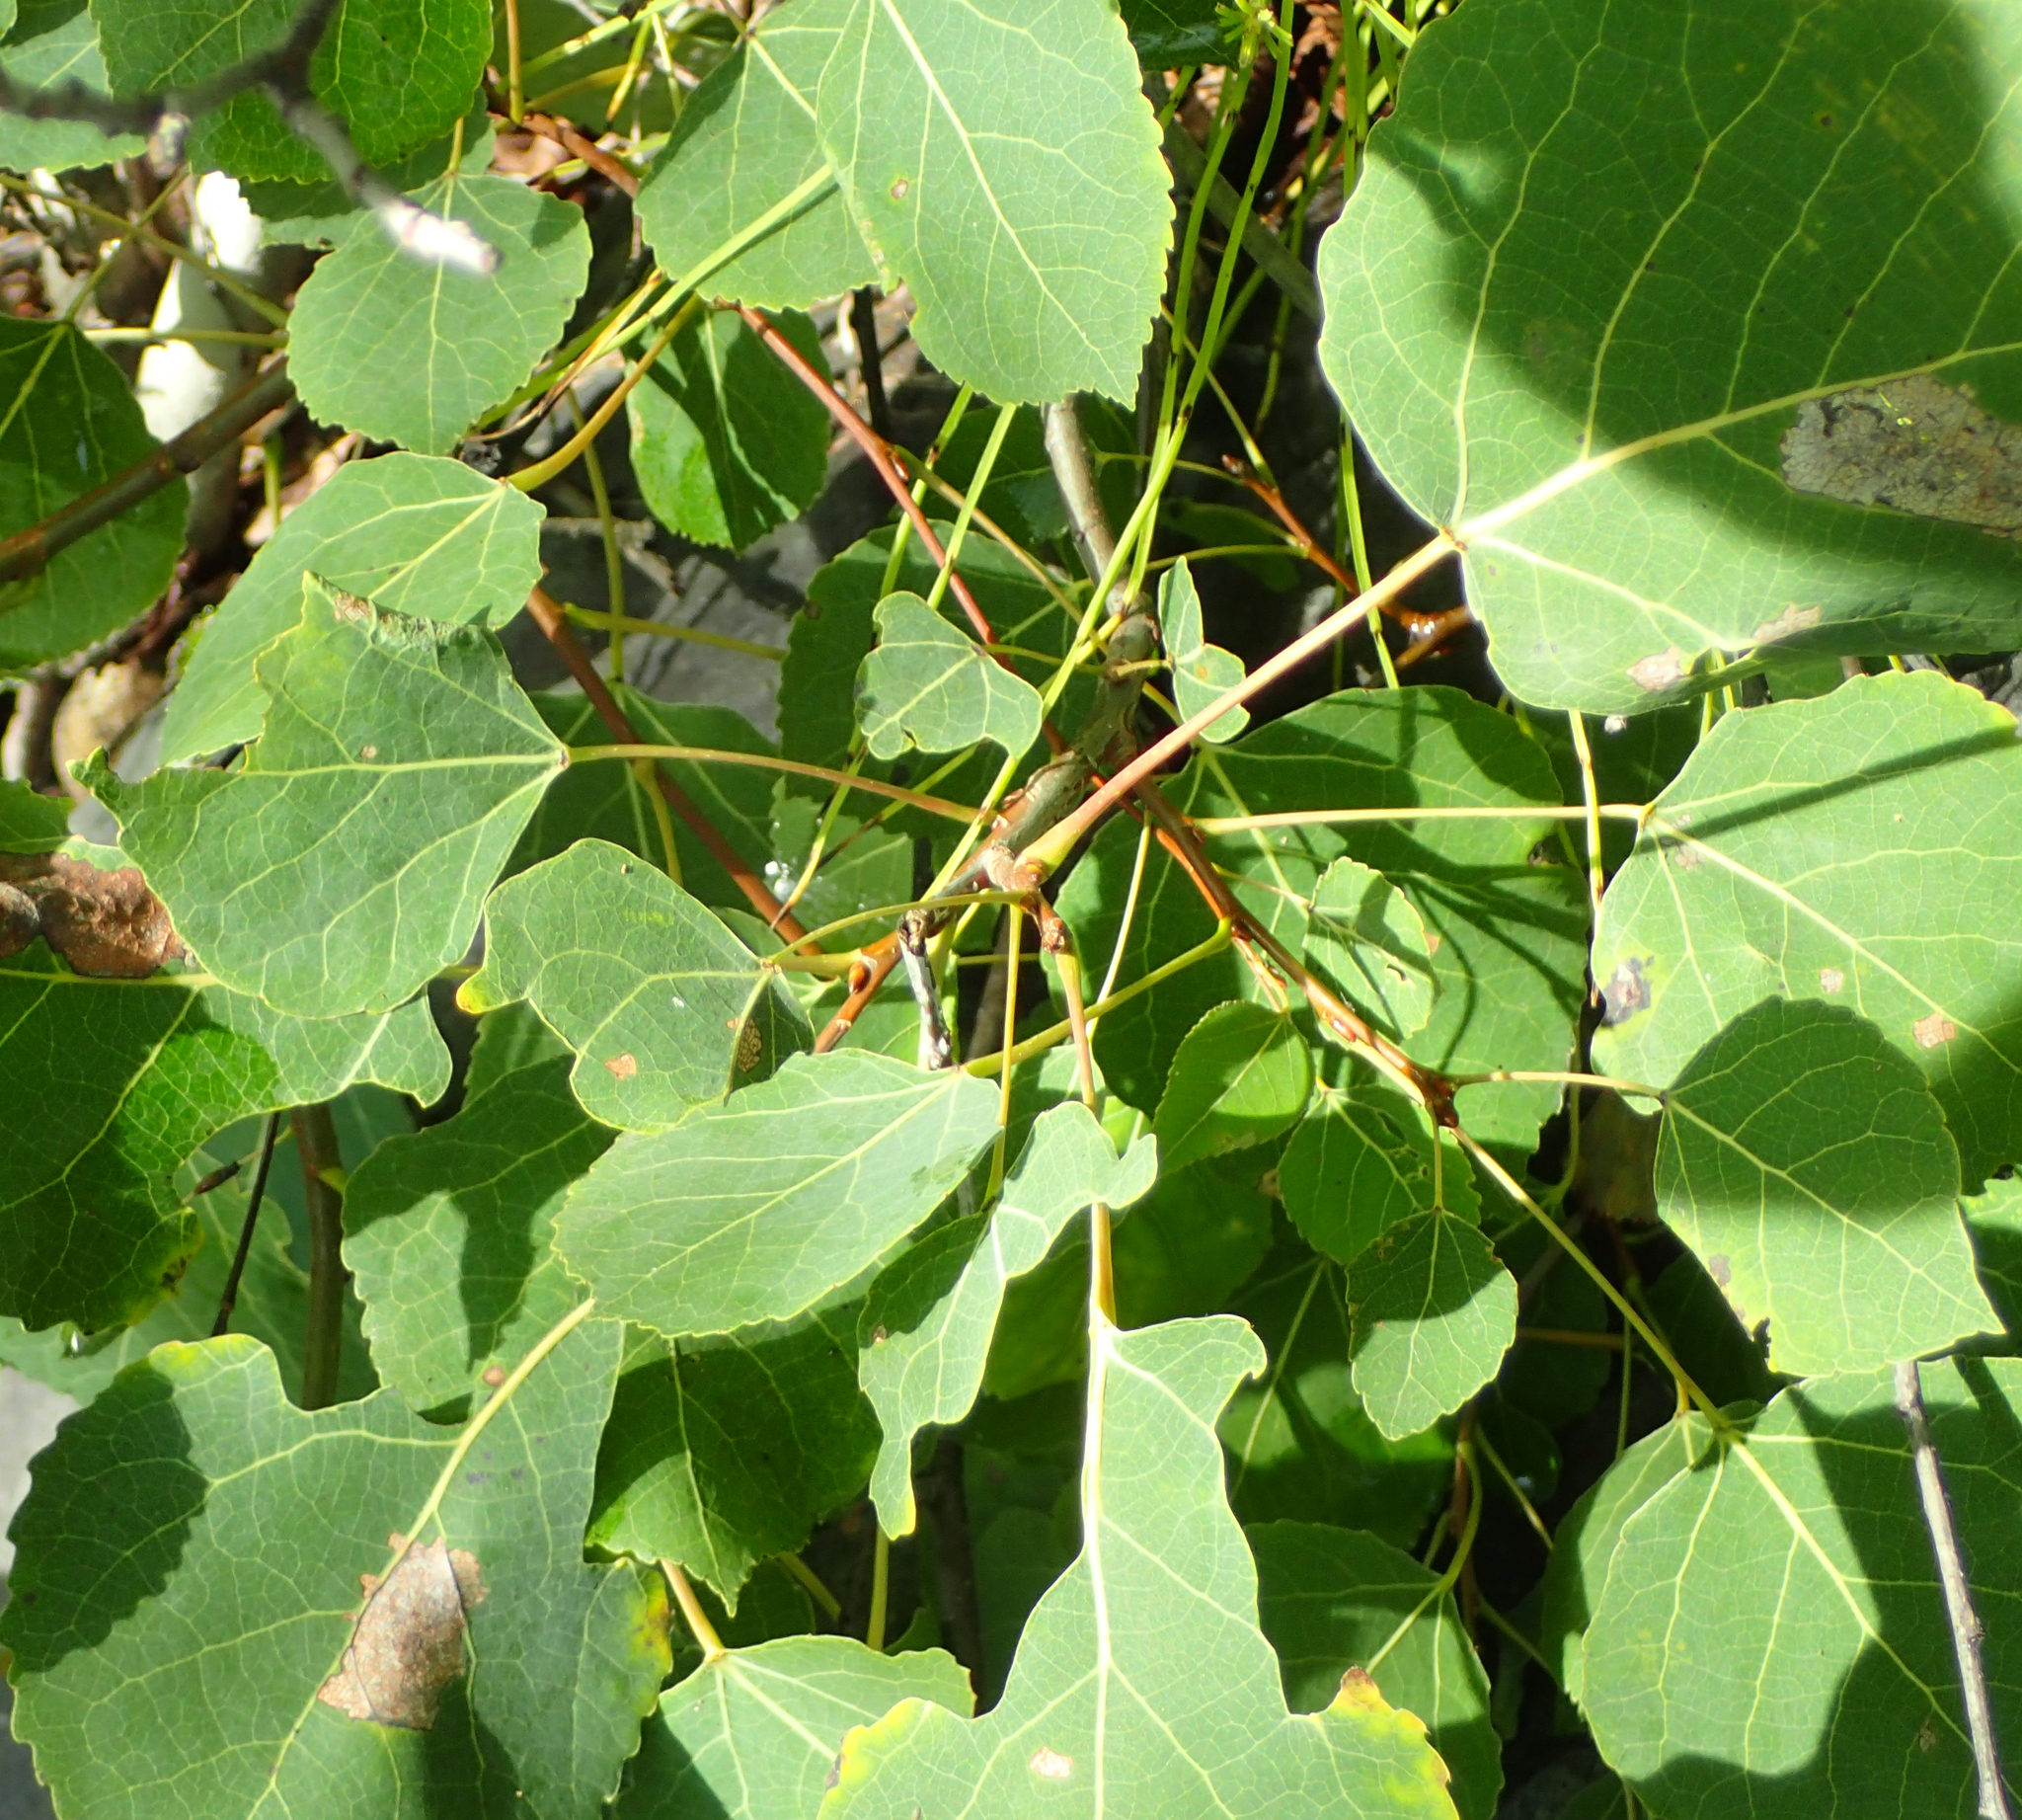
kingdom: Plantae
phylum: Tracheophyta
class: Magnoliopsida
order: Malpighiales
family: Salicaceae
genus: Populus
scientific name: Populus tremuloides
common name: Quaking aspen
